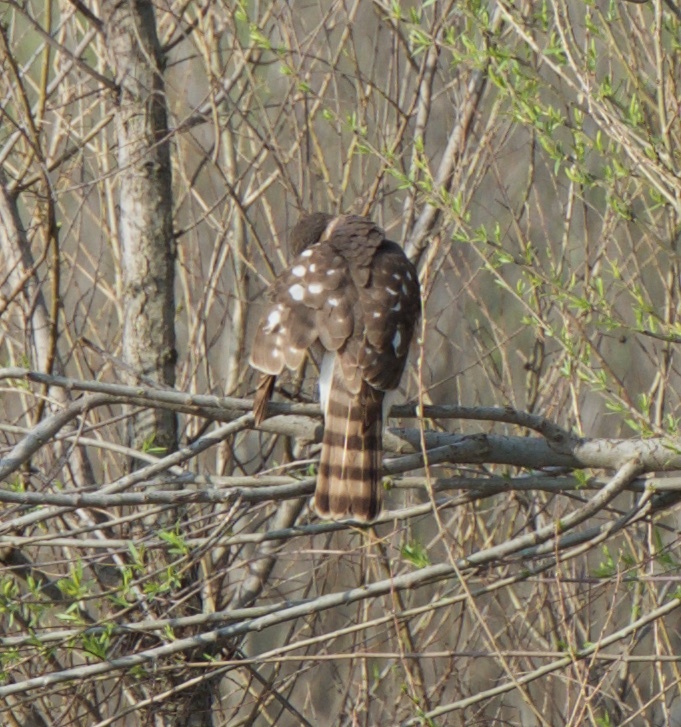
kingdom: Animalia
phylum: Chordata
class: Aves
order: Accipitriformes
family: Accipitridae
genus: Accipiter
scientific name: Accipiter striatus
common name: Sharp-shinned hawk
